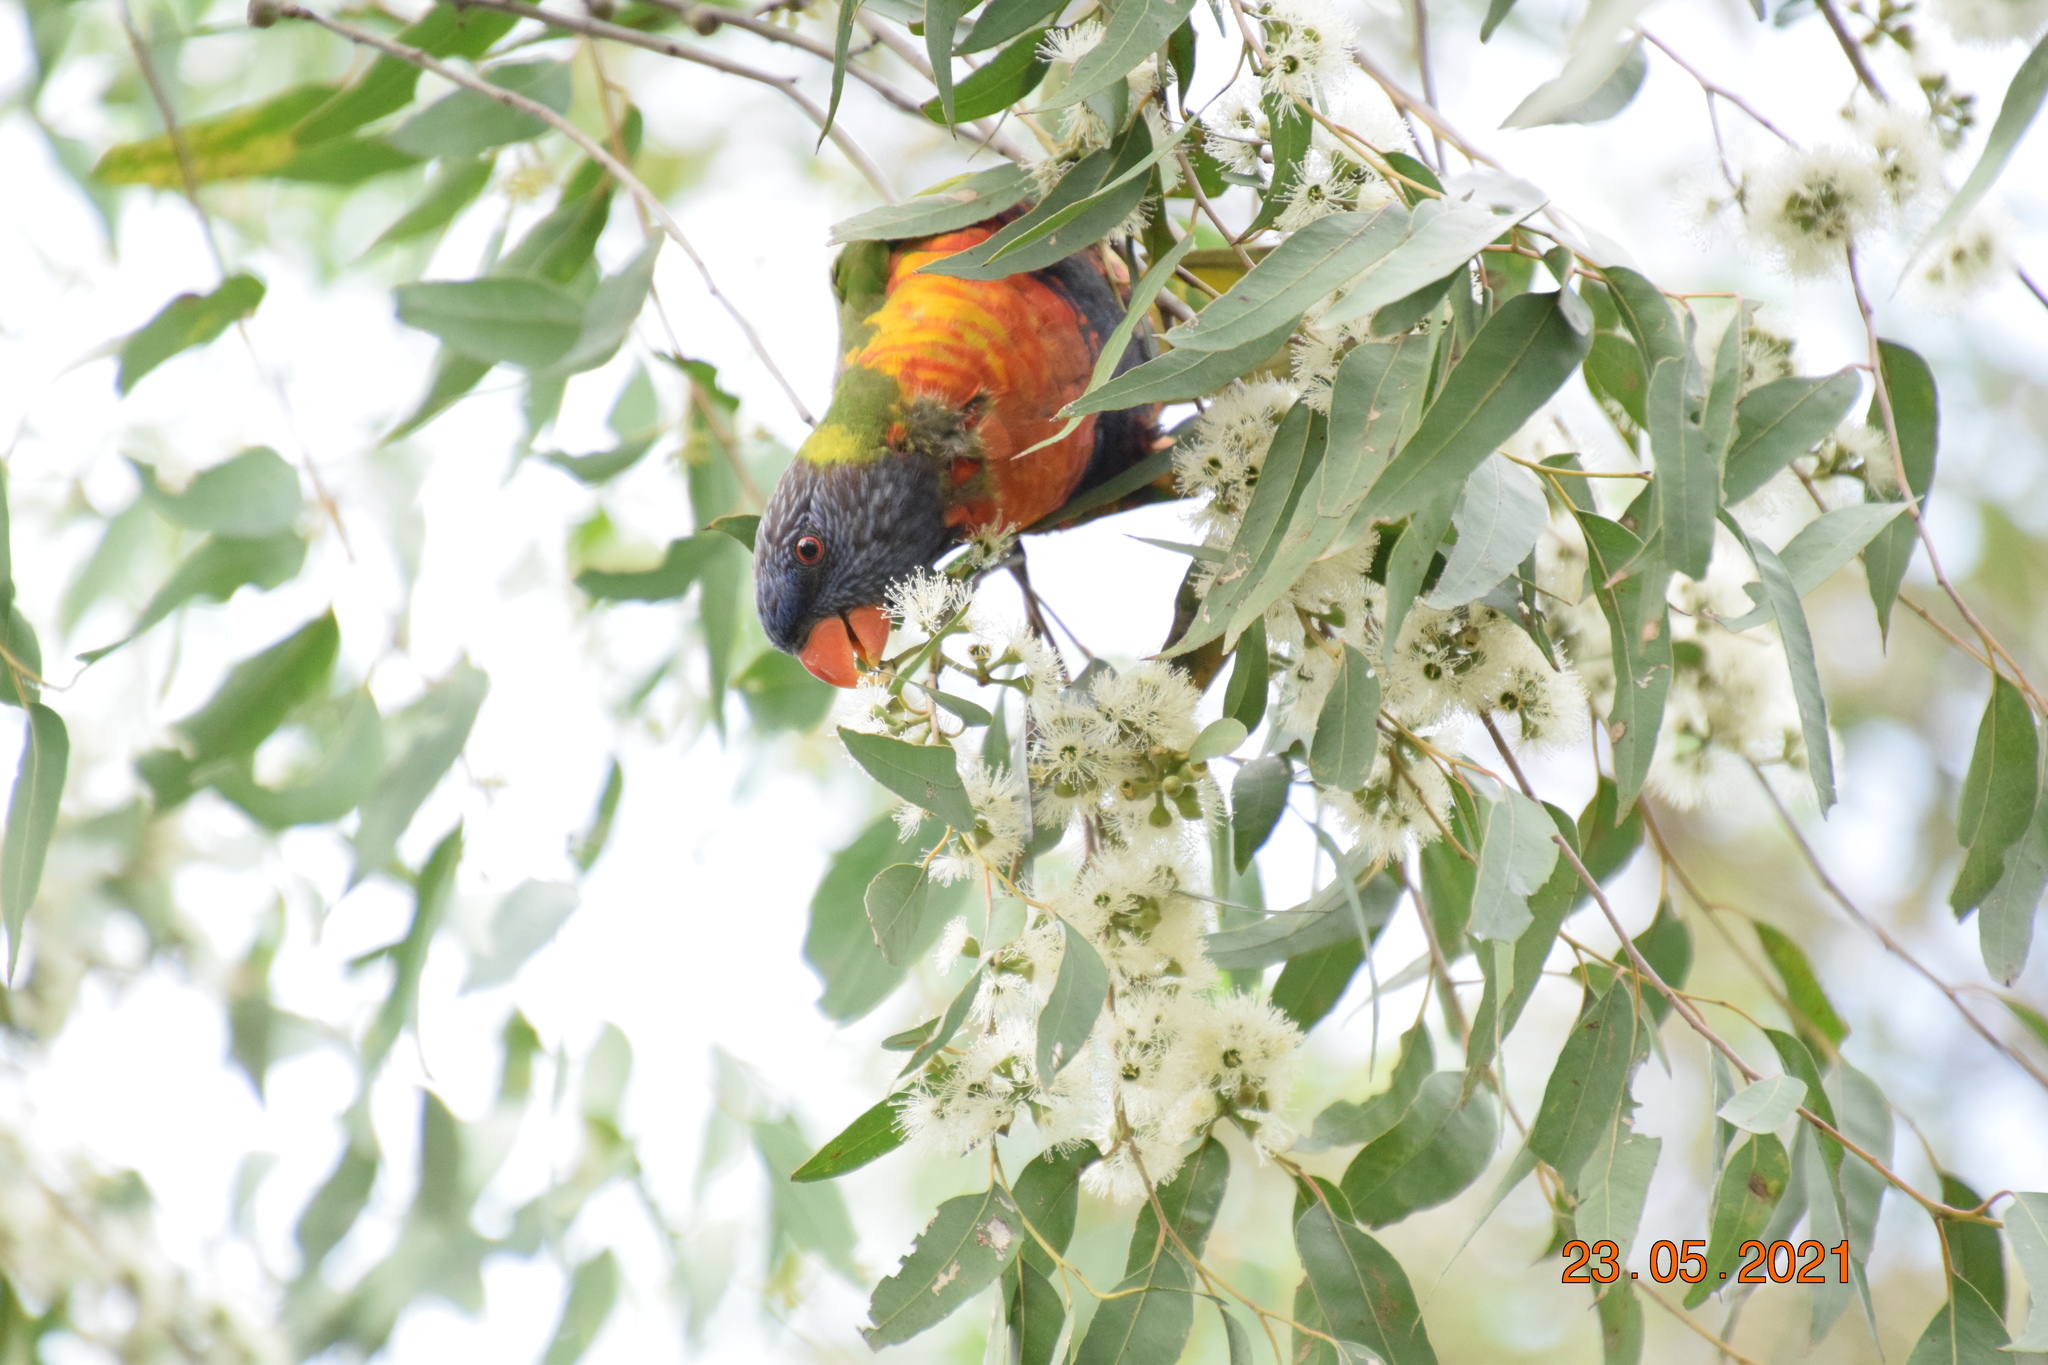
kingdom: Animalia
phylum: Chordata
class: Aves
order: Psittaciformes
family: Psittacidae
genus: Trichoglossus
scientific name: Trichoglossus haematodus
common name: Coconut lorikeet
